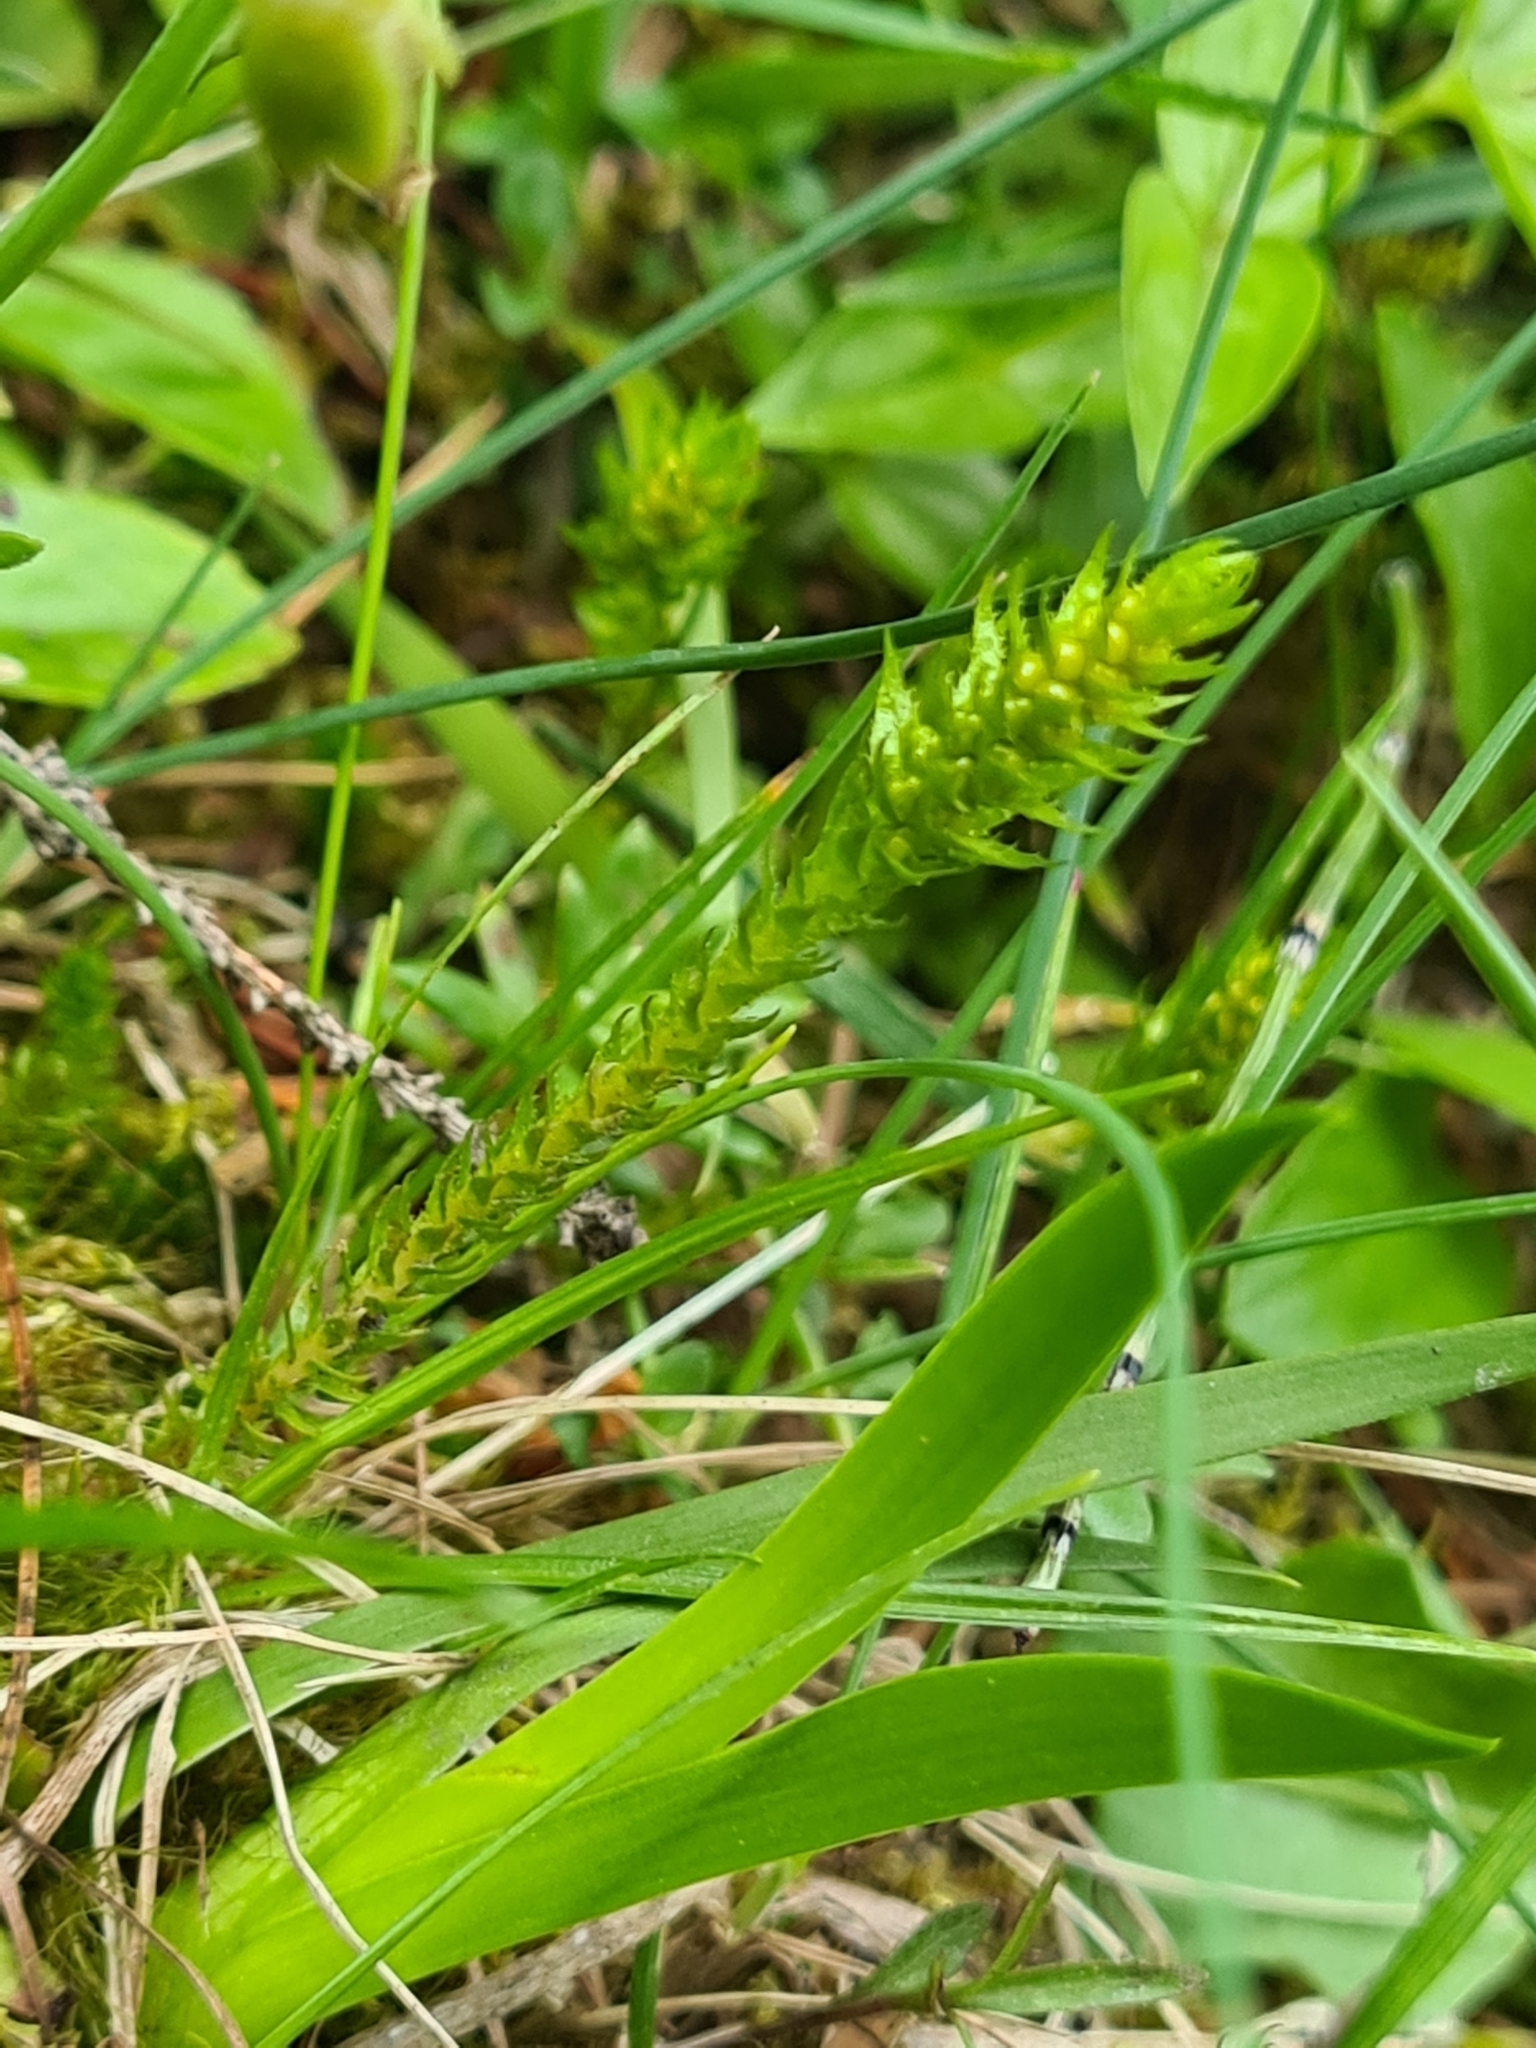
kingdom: Plantae
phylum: Tracheophyta
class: Lycopodiopsida
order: Selaginellales
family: Selaginellaceae
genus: Selaginella
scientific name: Selaginella selaginoides
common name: Prickly mountain-moss
